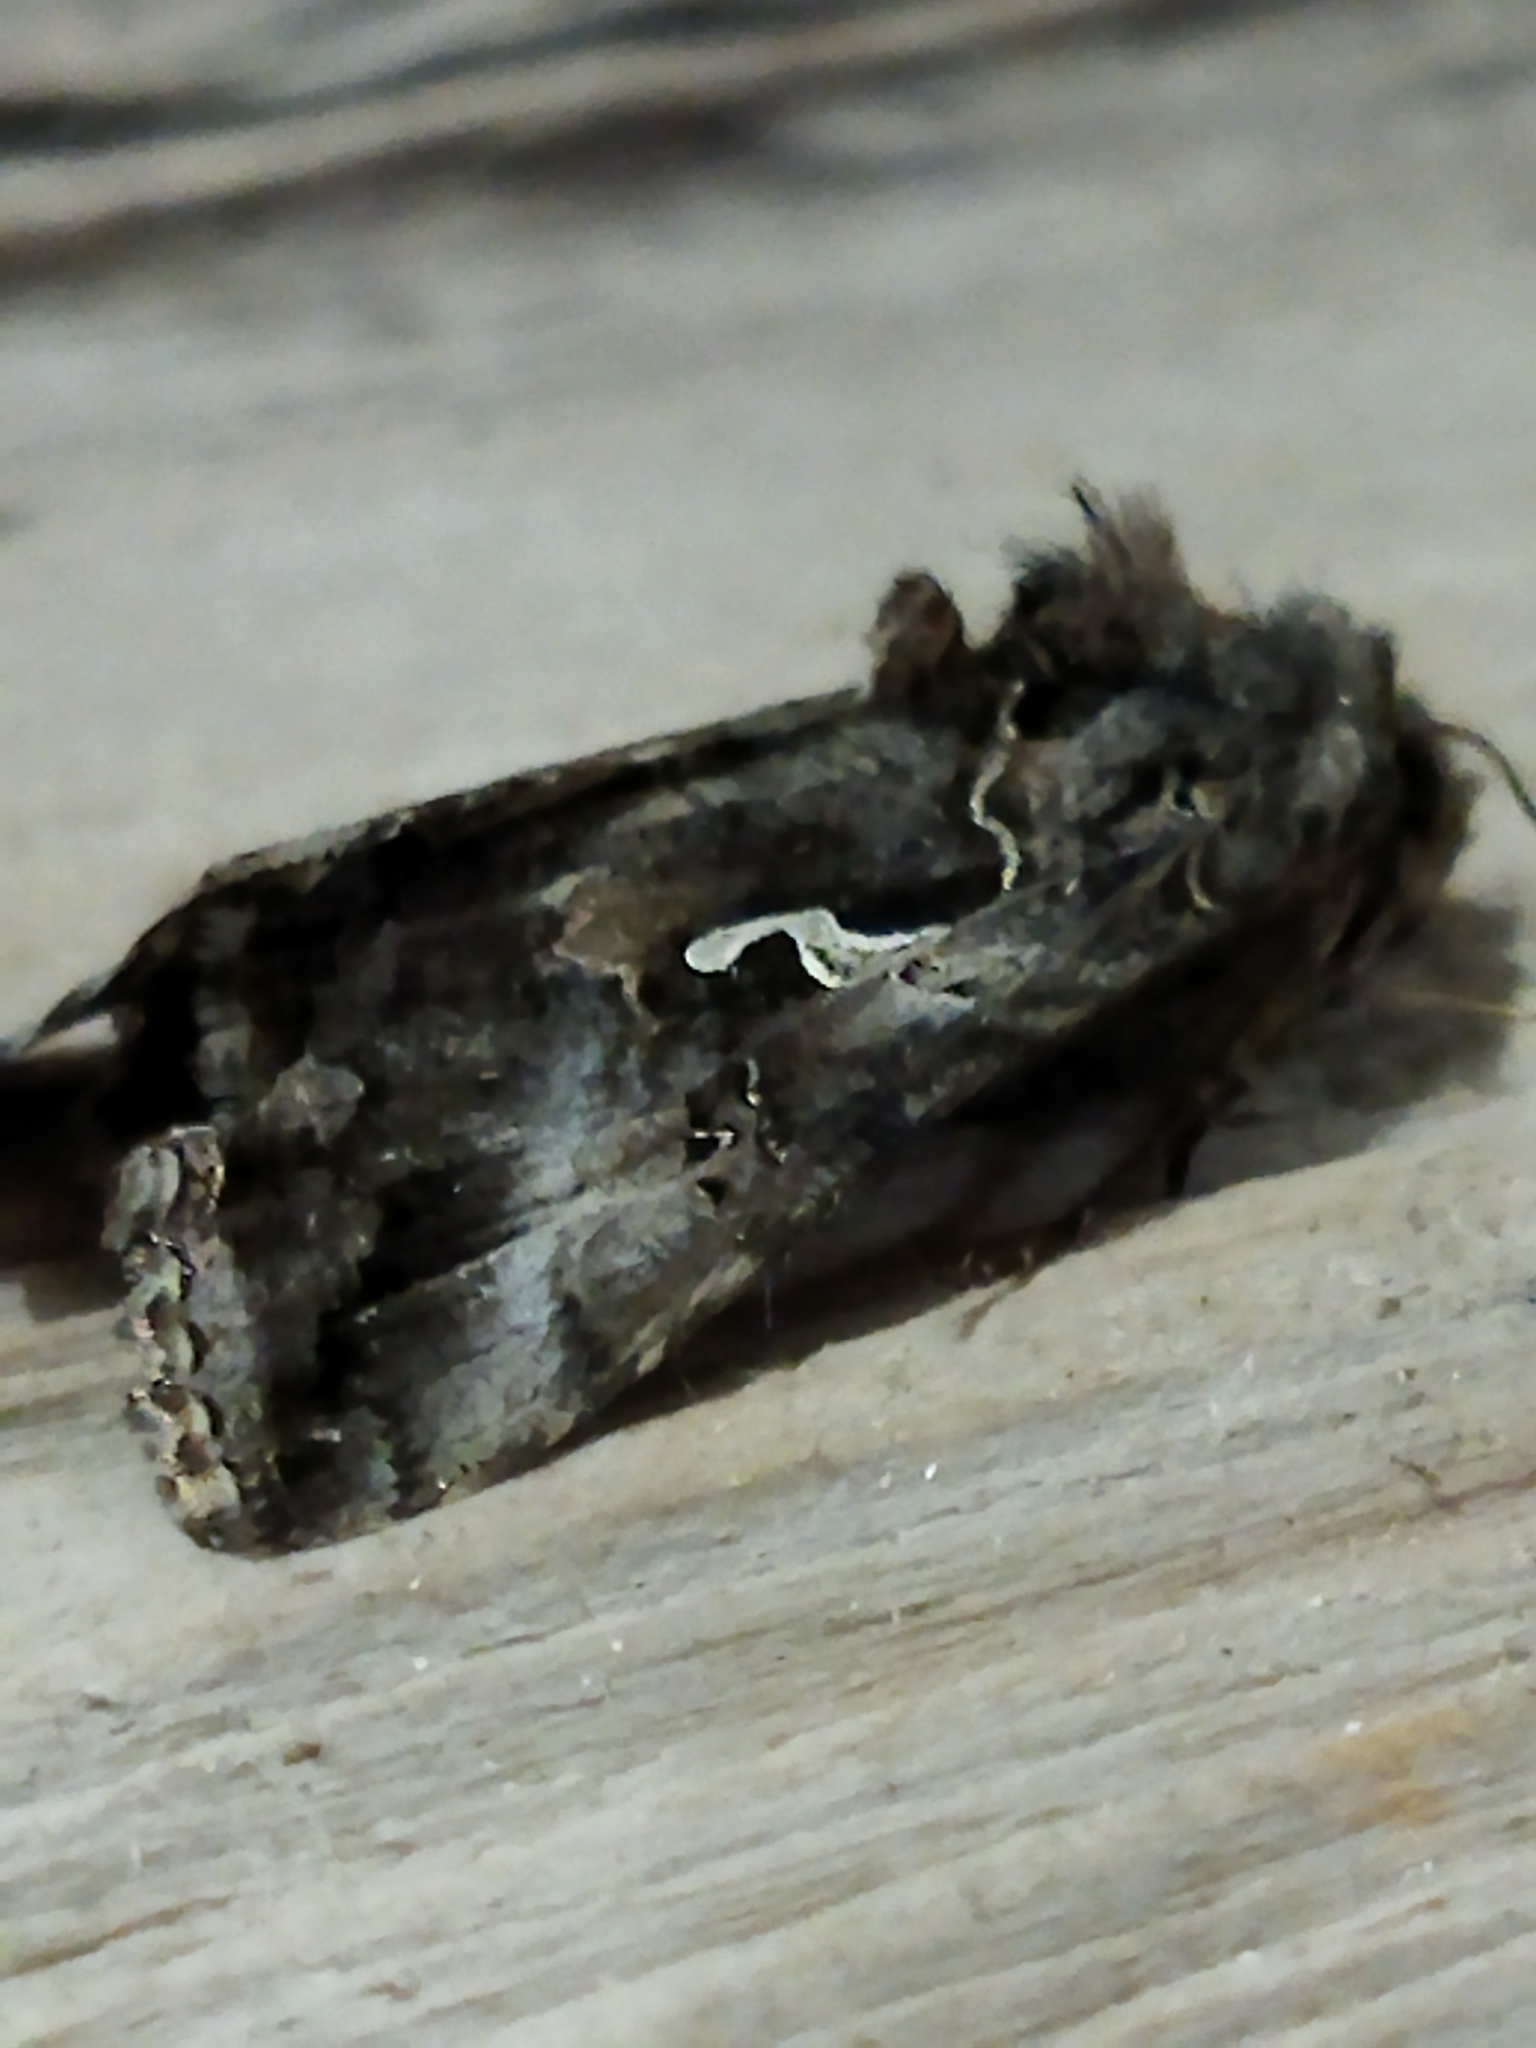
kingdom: Animalia
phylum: Arthropoda
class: Insecta
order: Lepidoptera
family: Noctuidae
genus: Autographa
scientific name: Autographa gamma
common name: Silver y
